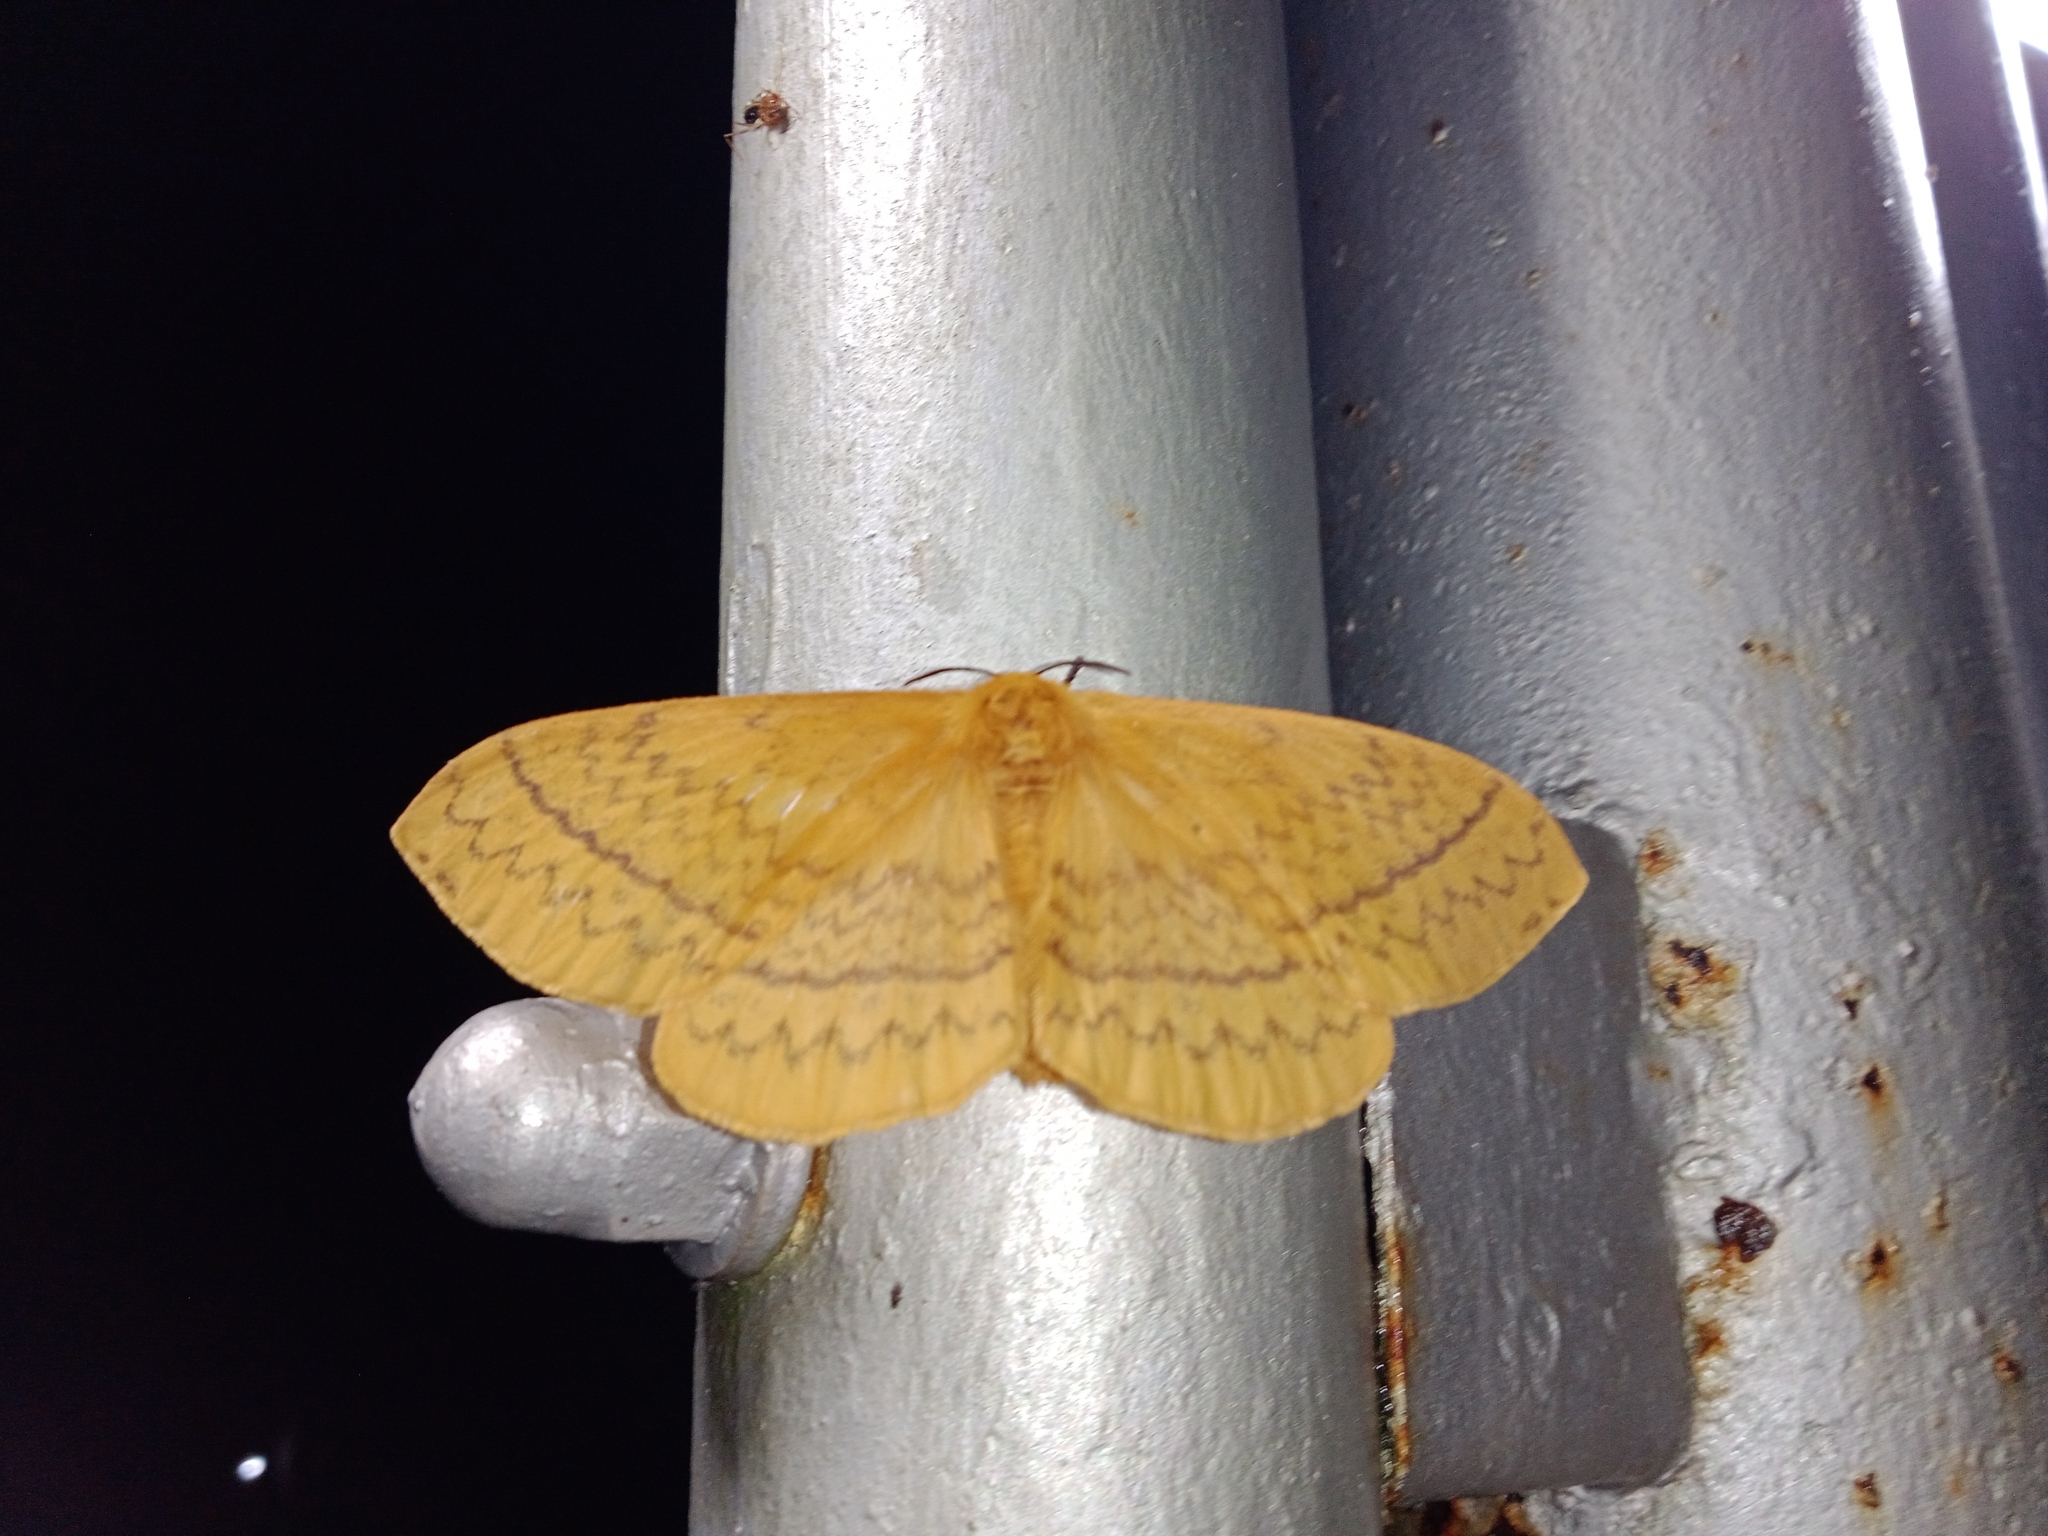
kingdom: Animalia
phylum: Arthropoda
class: Insecta
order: Lepidoptera
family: Eupterotidae
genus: Eupterote
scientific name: Eupterote undata
